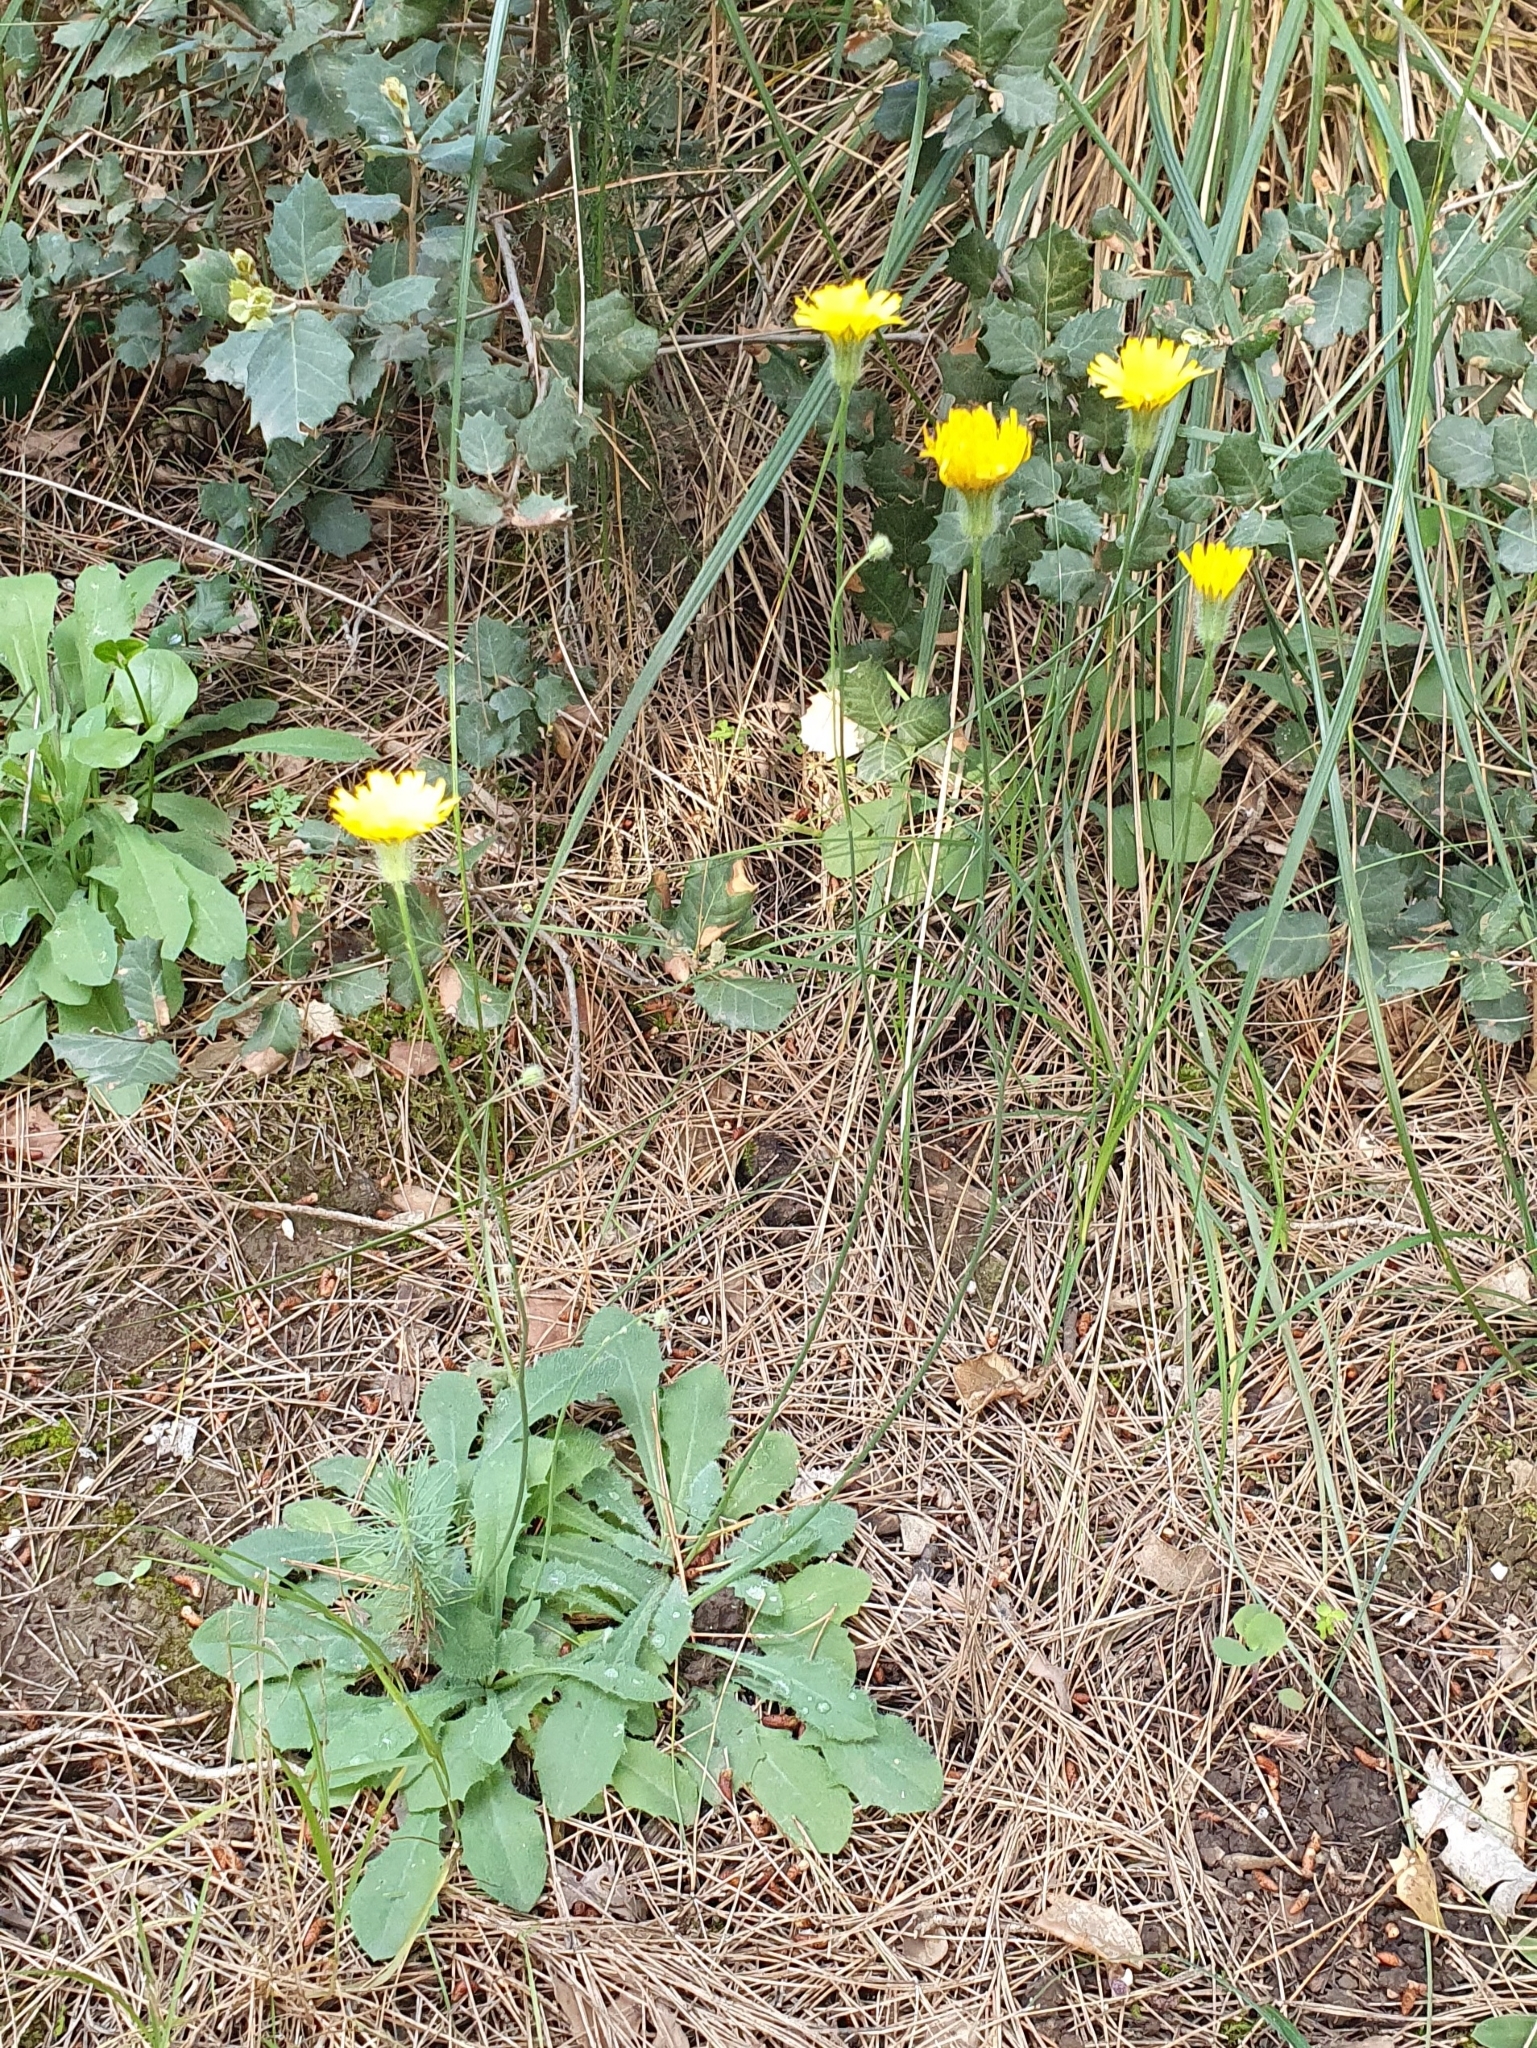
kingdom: Plantae
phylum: Tracheophyta
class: Magnoliopsida
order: Asterales
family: Asteraceae
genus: Achyrophorus
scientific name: Achyrophorus laevigatus
